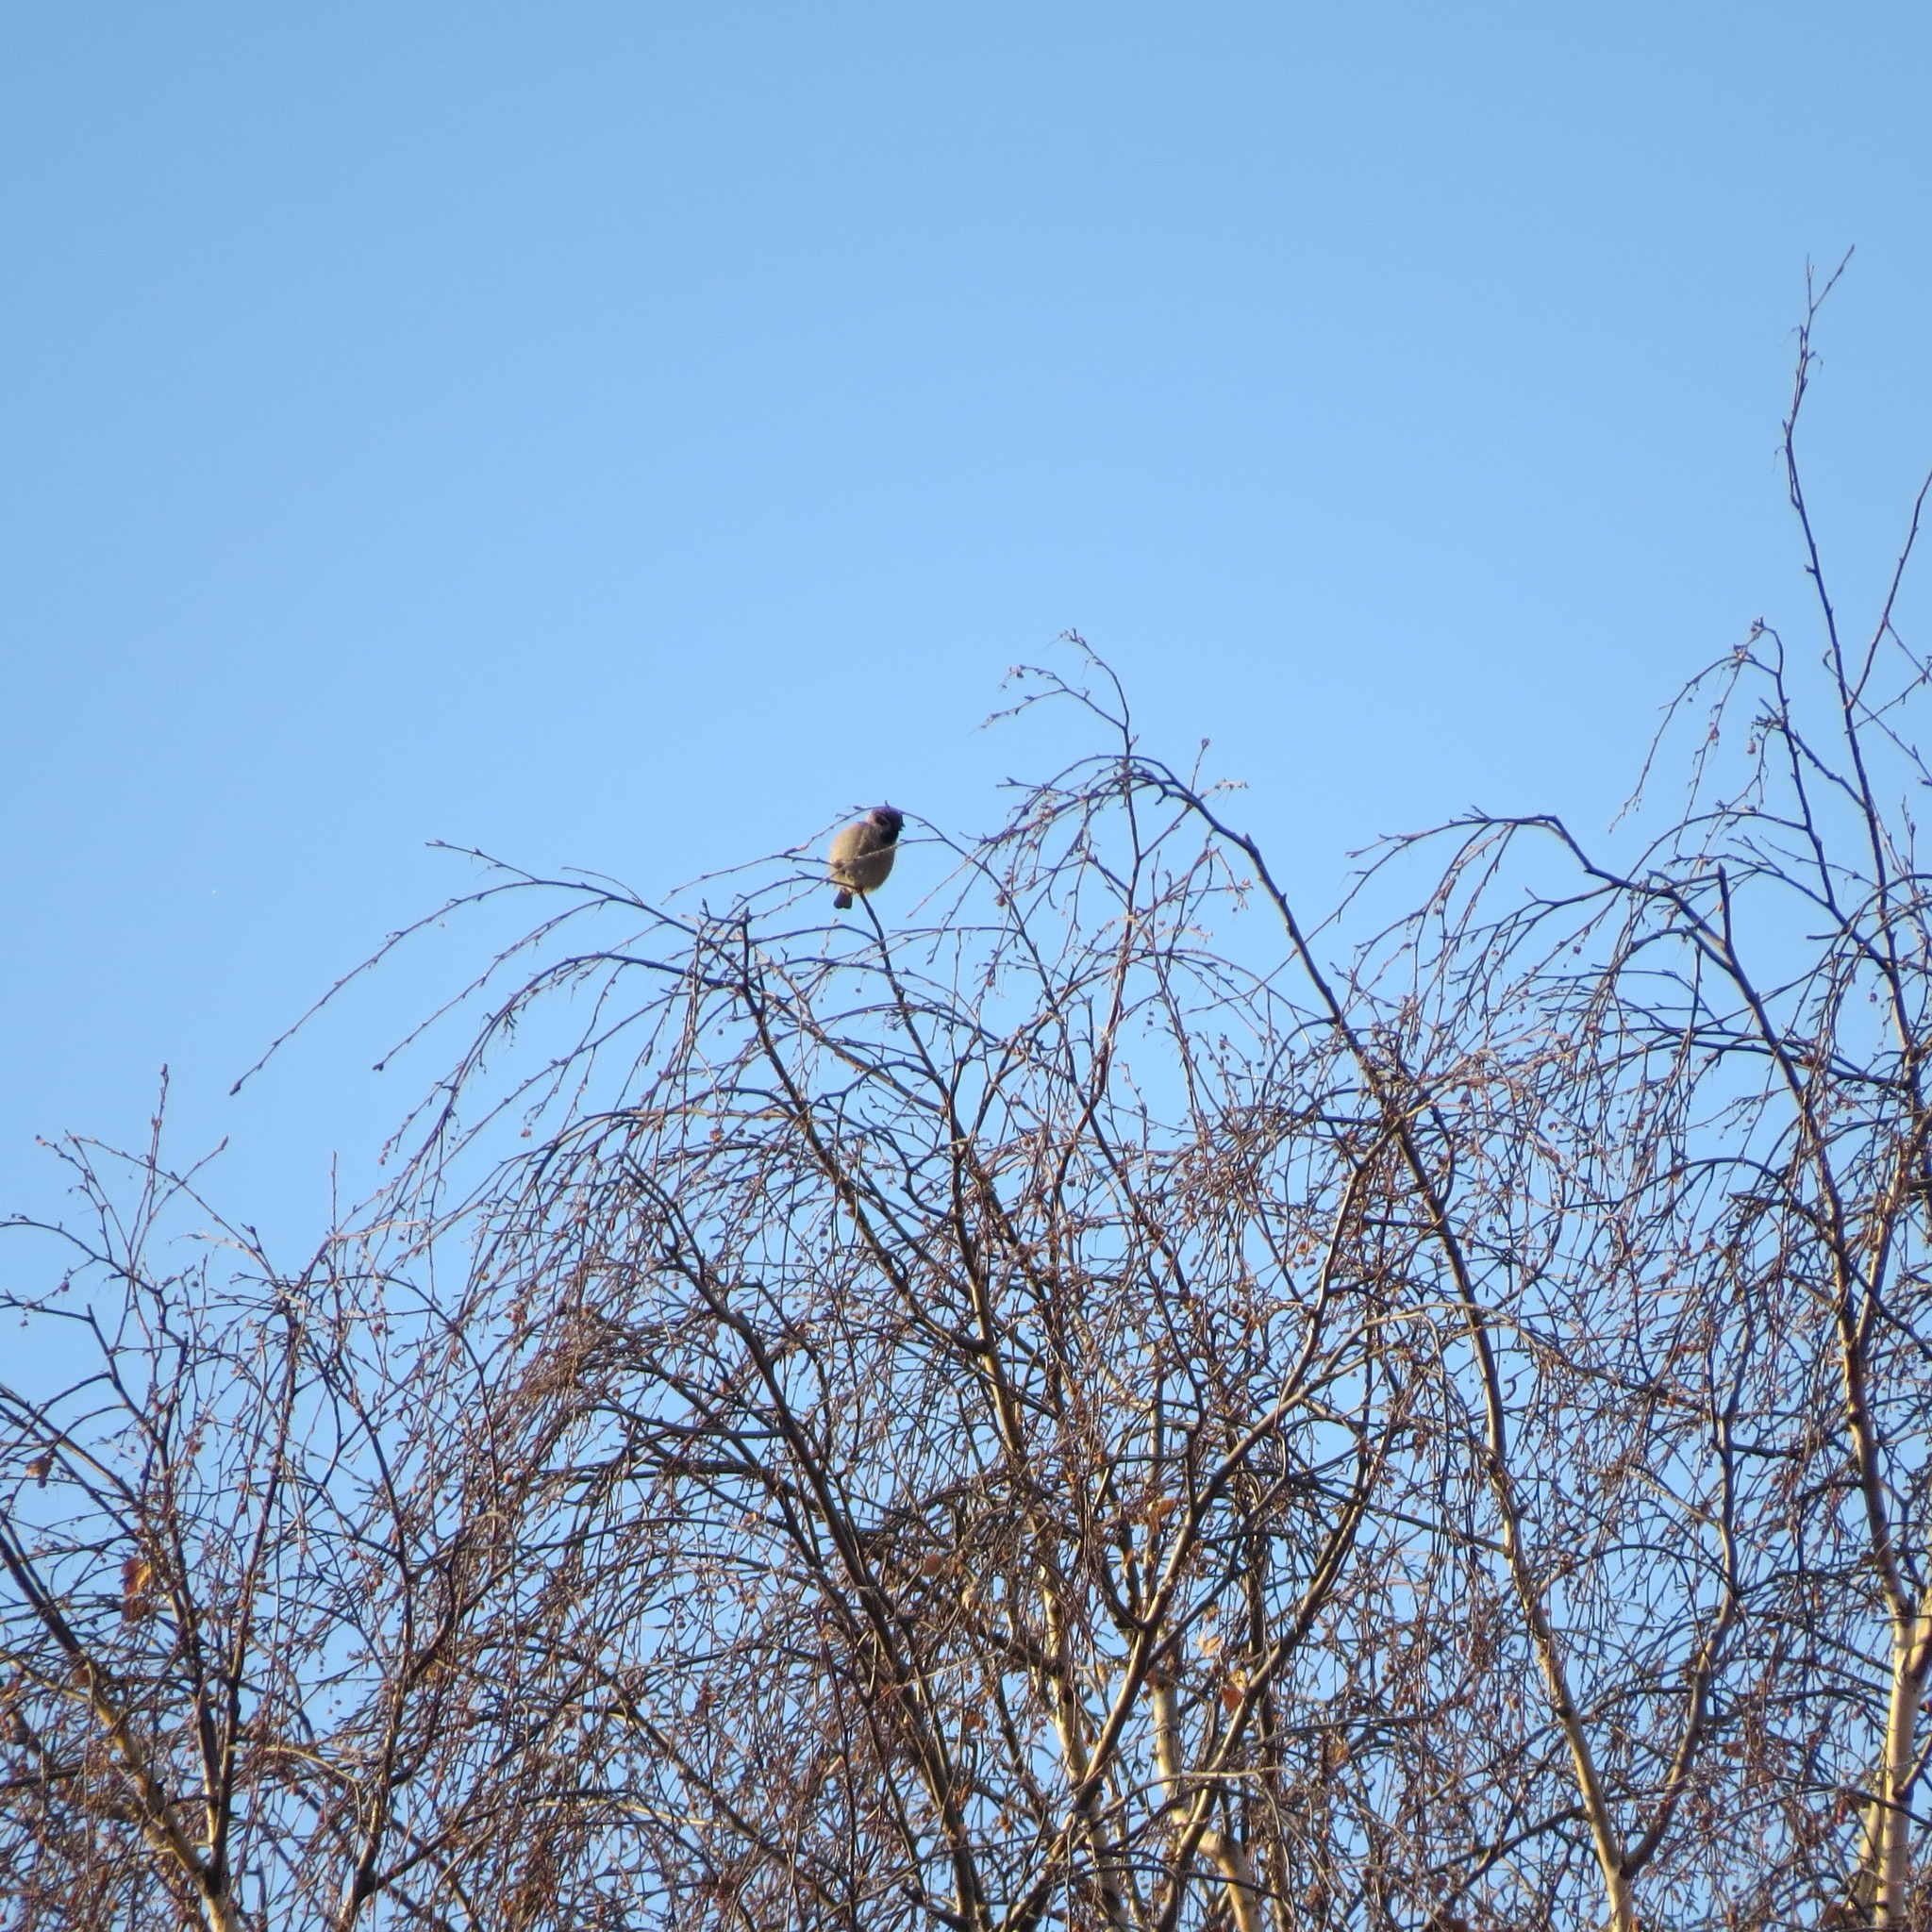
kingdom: Animalia
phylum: Chordata
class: Aves
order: Passeriformes
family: Passeridae
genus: Passer
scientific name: Passer montanus
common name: Eurasian tree sparrow
